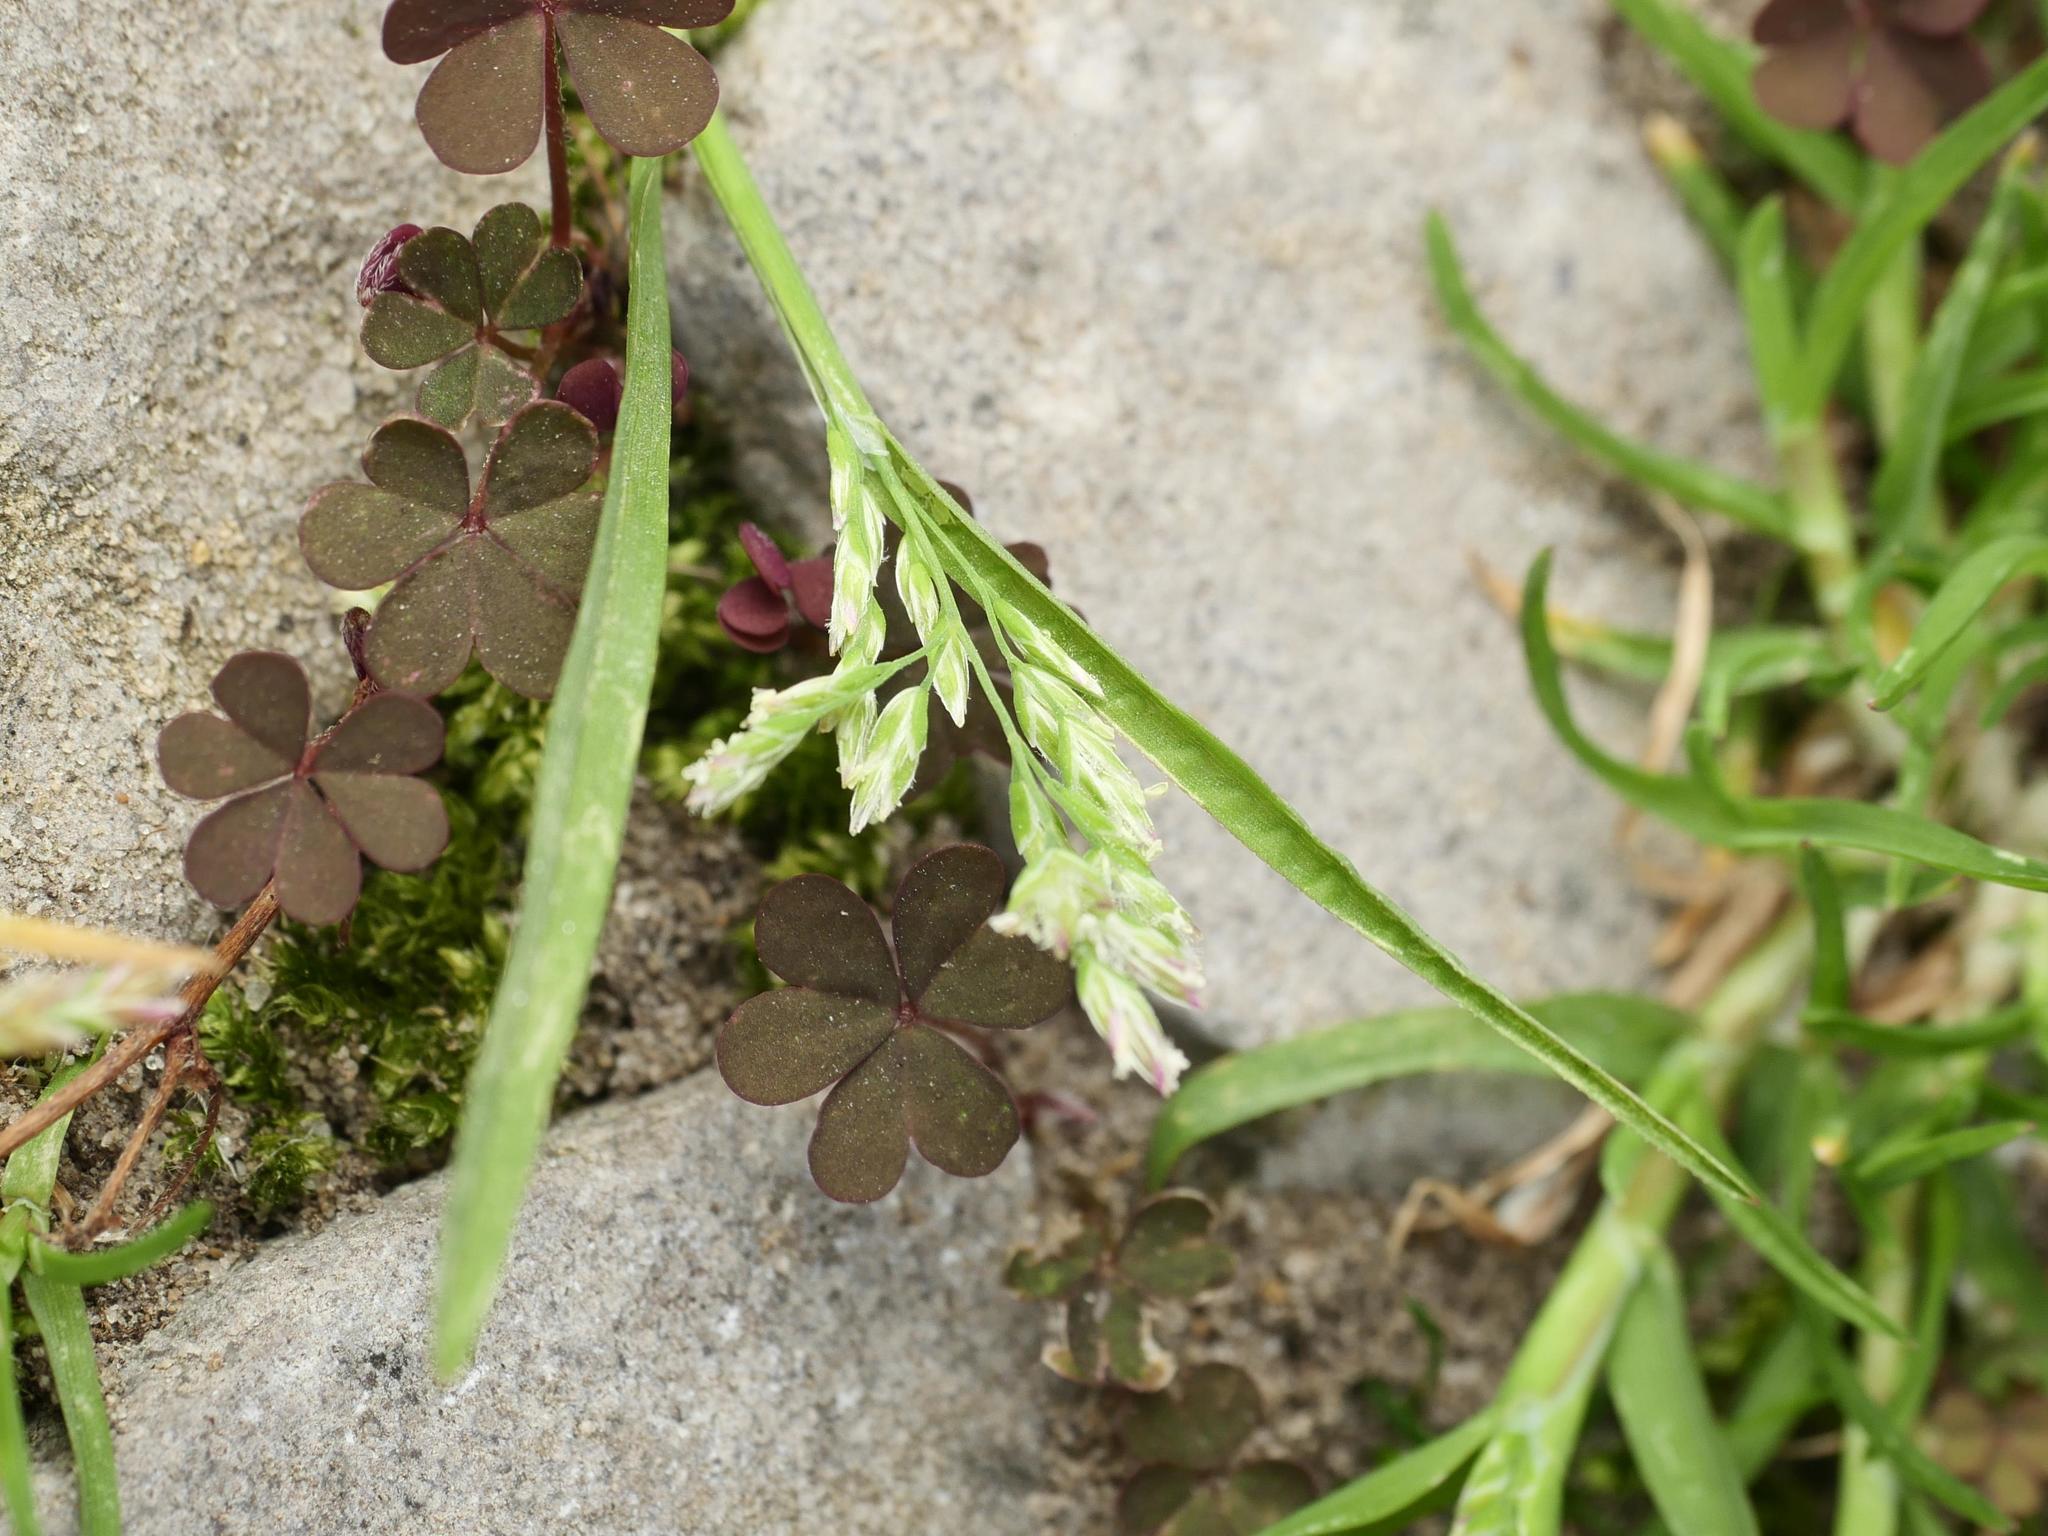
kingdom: Plantae
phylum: Tracheophyta
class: Liliopsida
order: Poales
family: Poaceae
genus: Poa
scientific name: Poa annua
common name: Annual bluegrass
